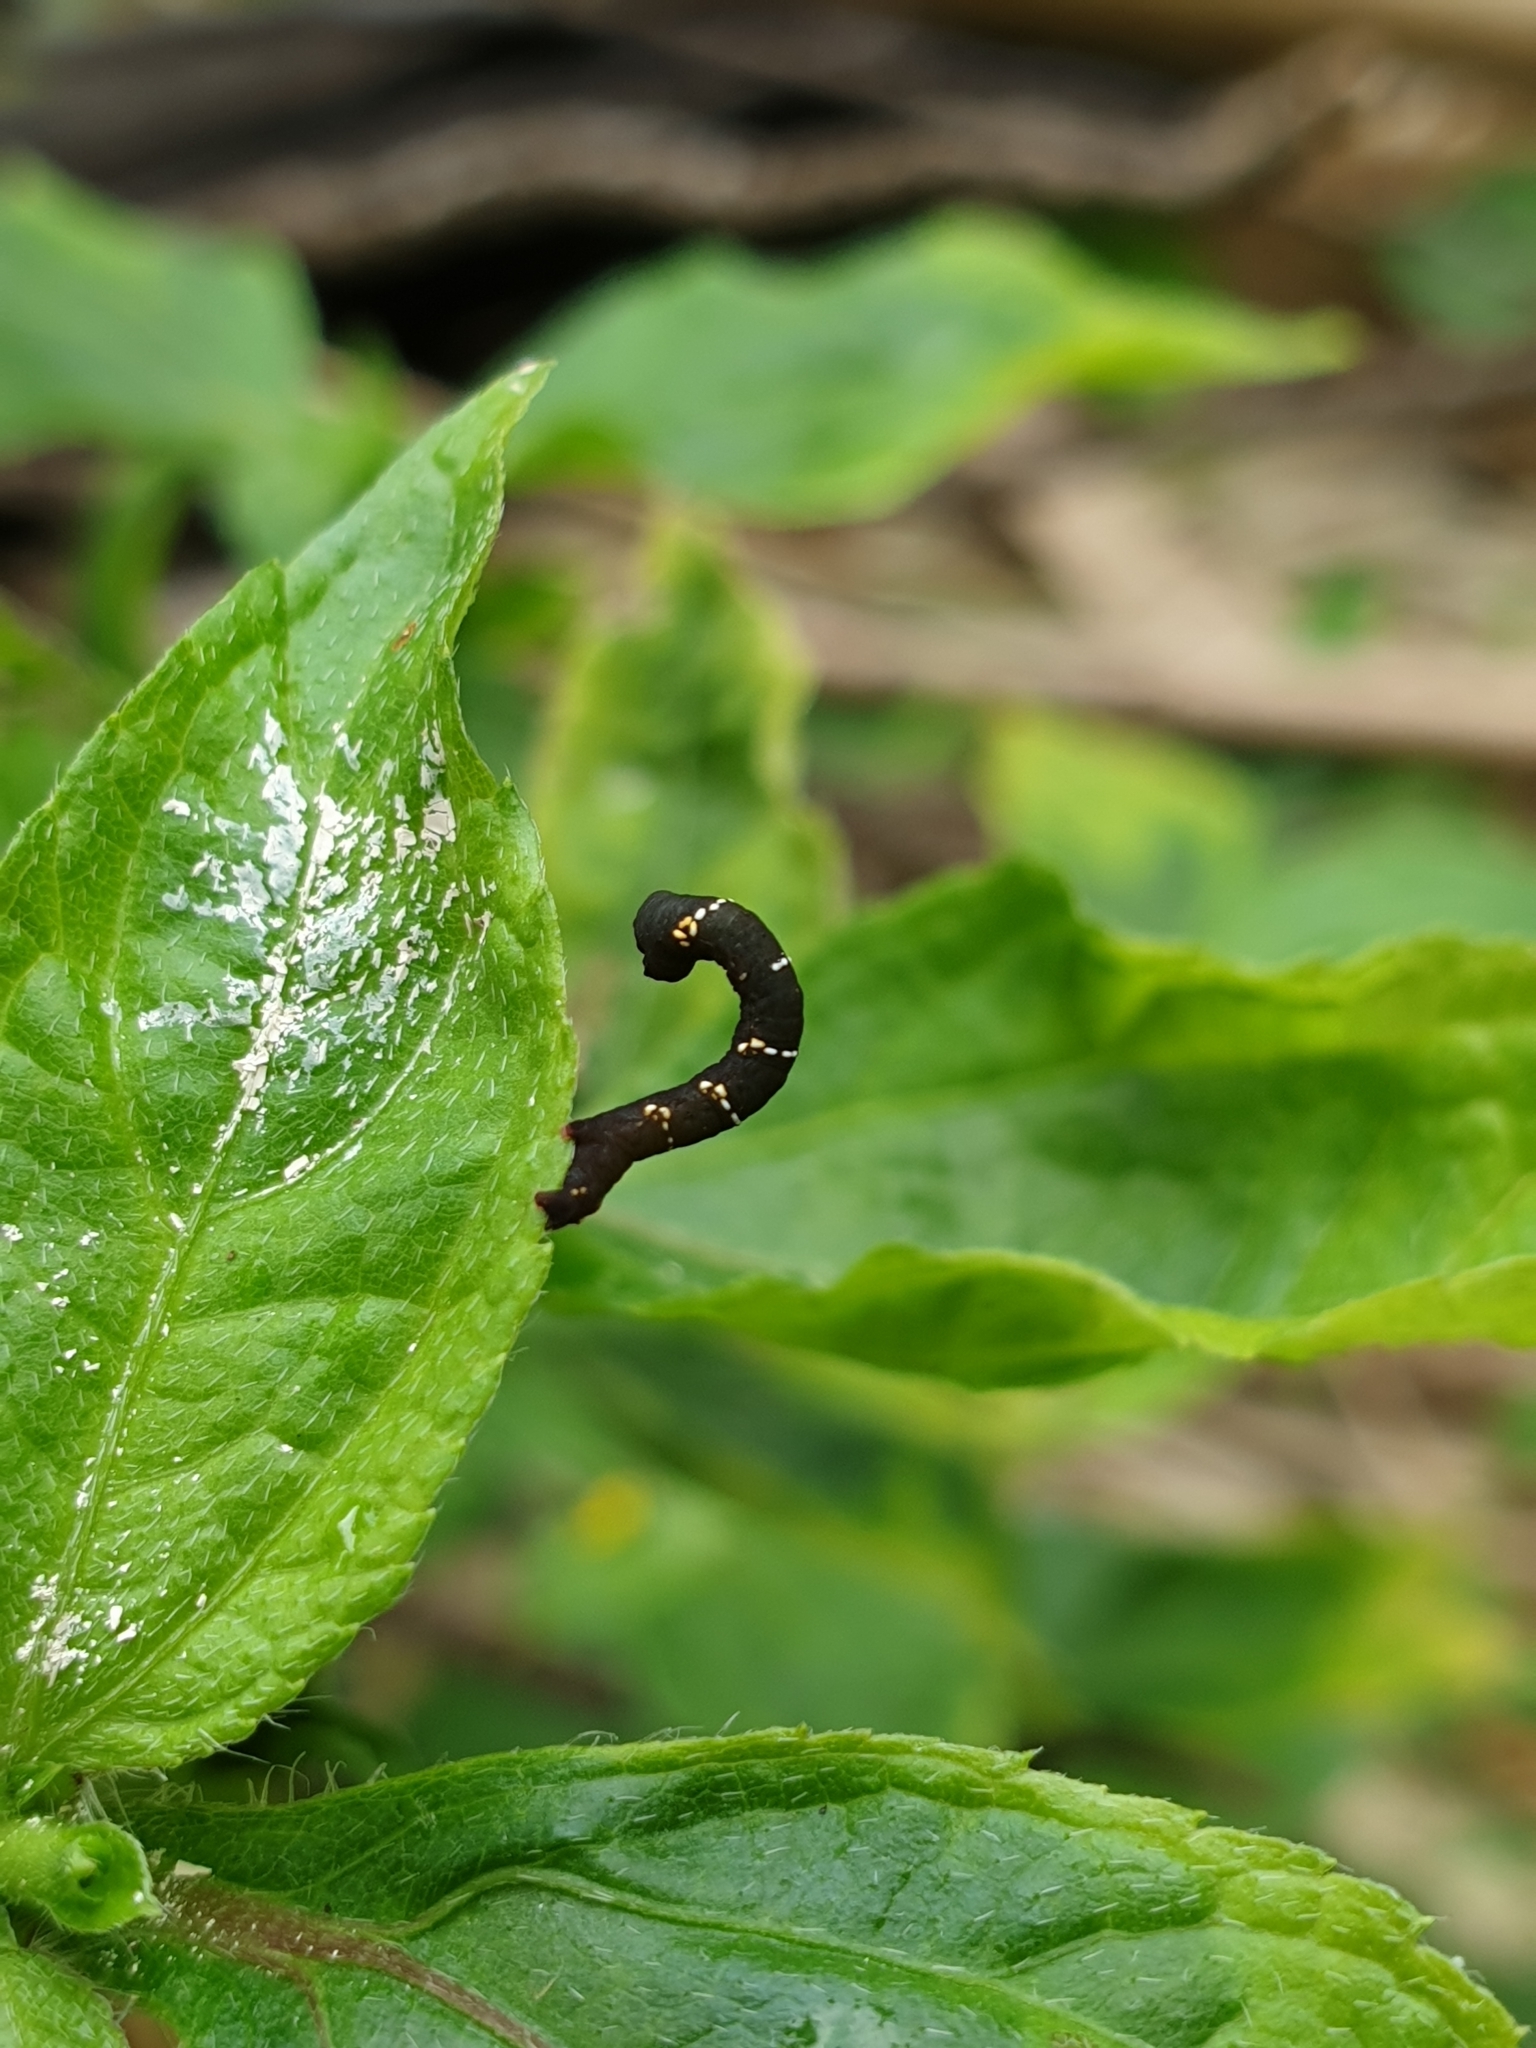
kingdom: Animalia
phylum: Arthropoda
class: Insecta
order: Lepidoptera
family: Geometridae
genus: Hyposidra
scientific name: Hyposidra talaca
